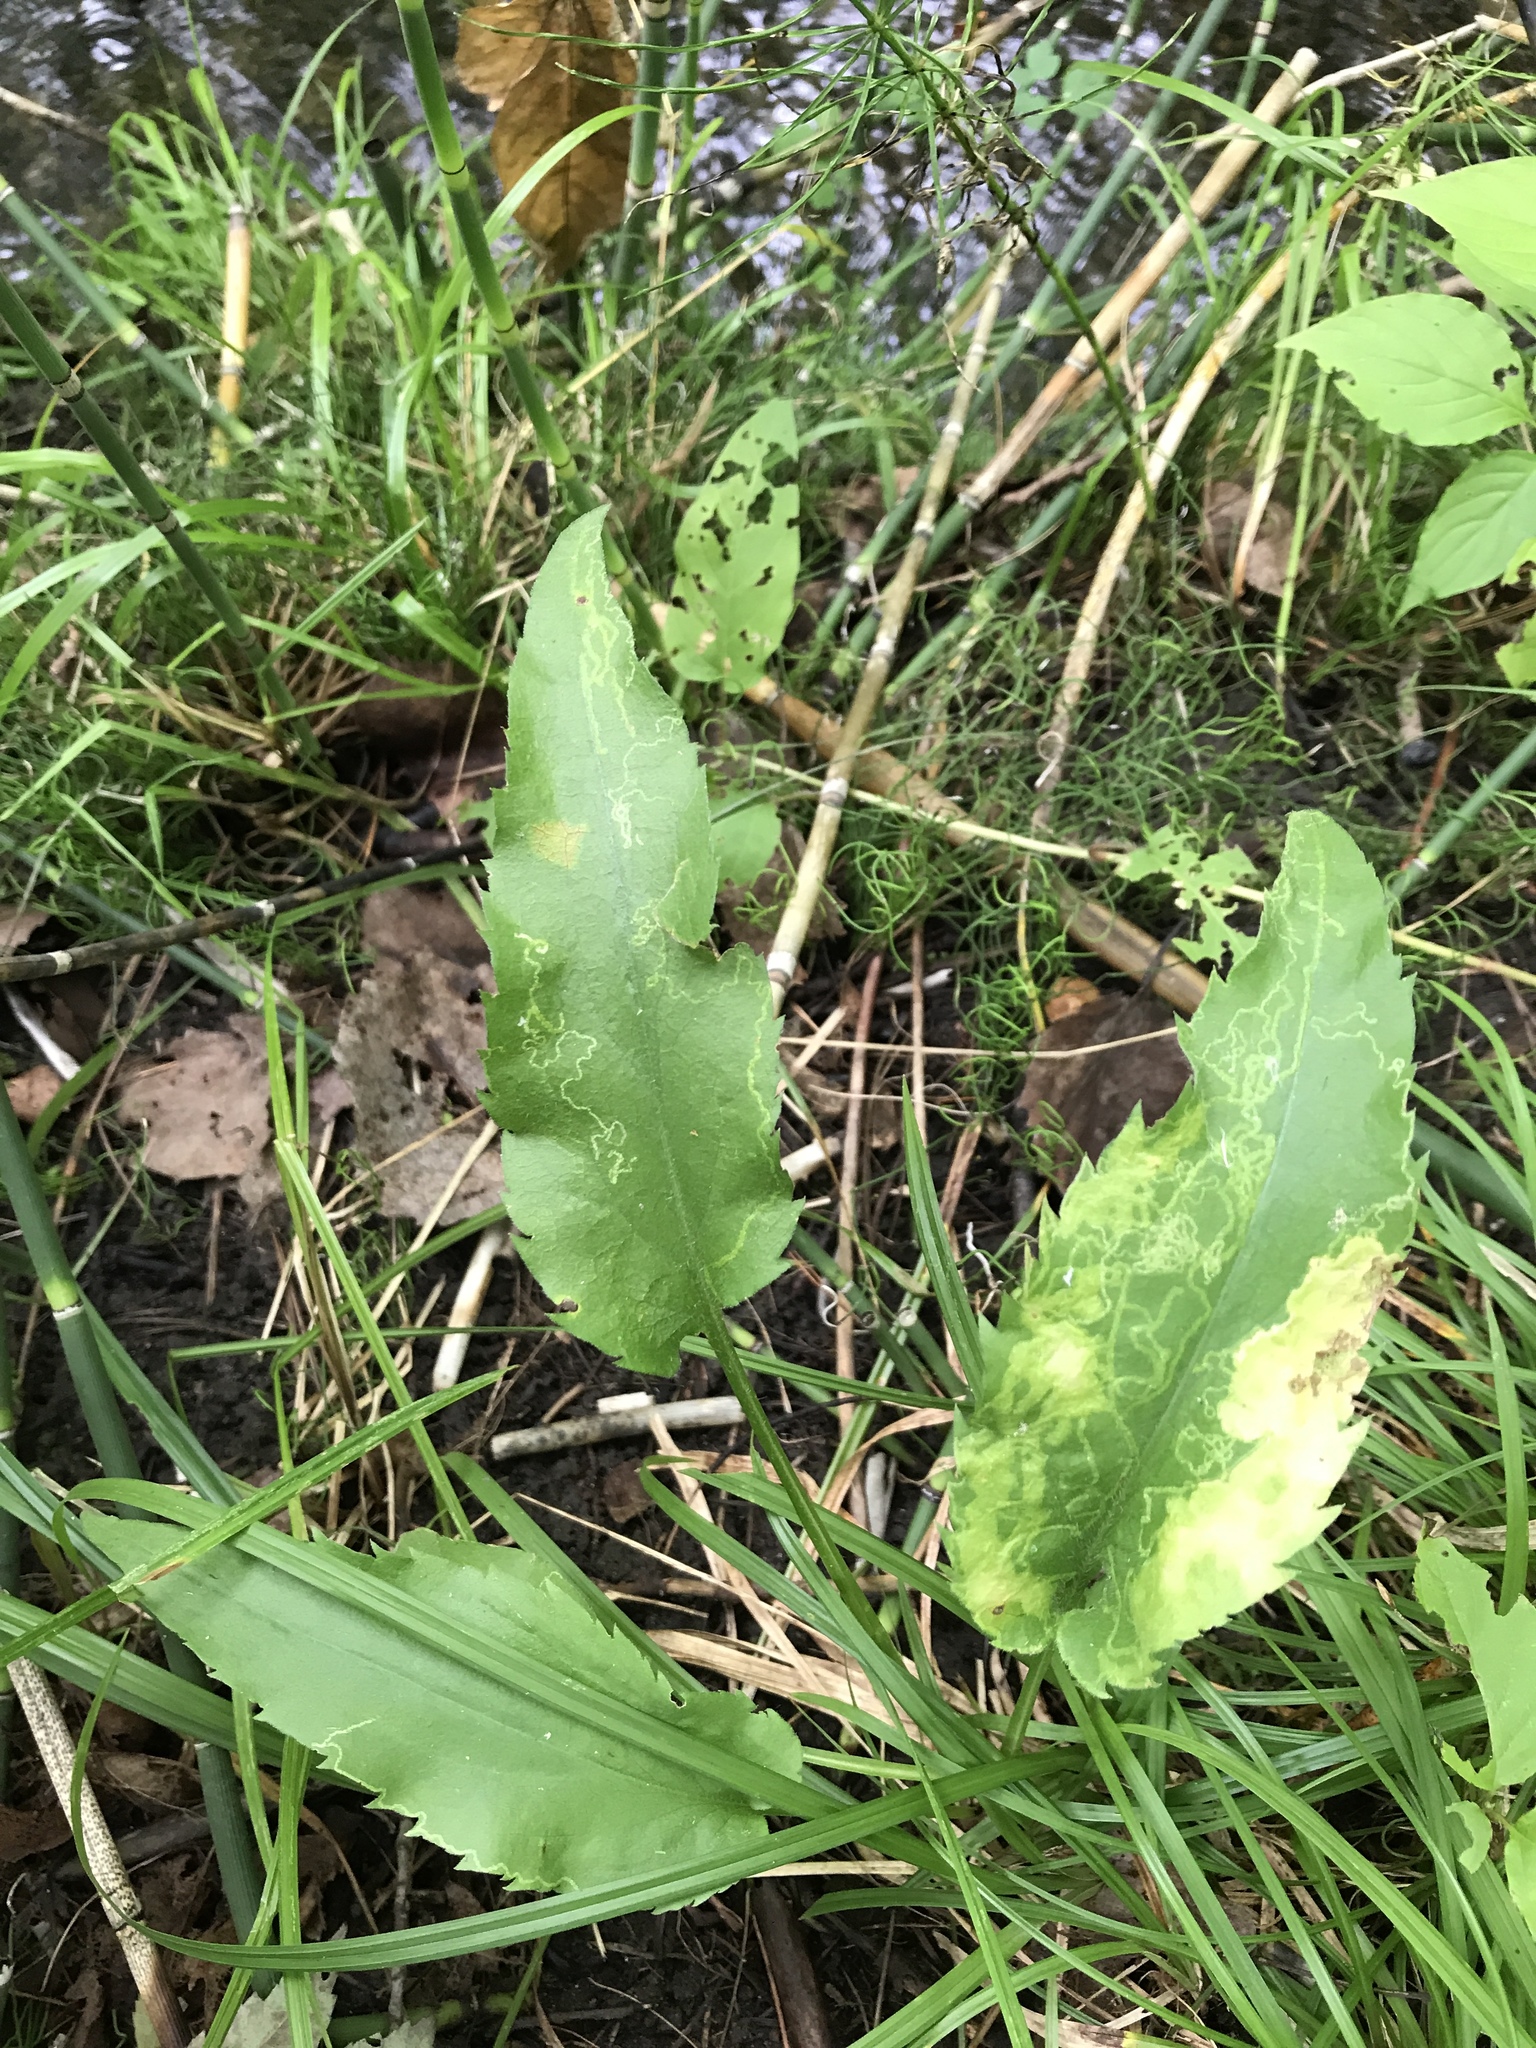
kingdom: Plantae
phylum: Tracheophyta
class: Magnoliopsida
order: Asterales
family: Asteraceae
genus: Symphyotrichum
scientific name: Symphyotrichum urophyllum
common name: Arrow-leaved aster
